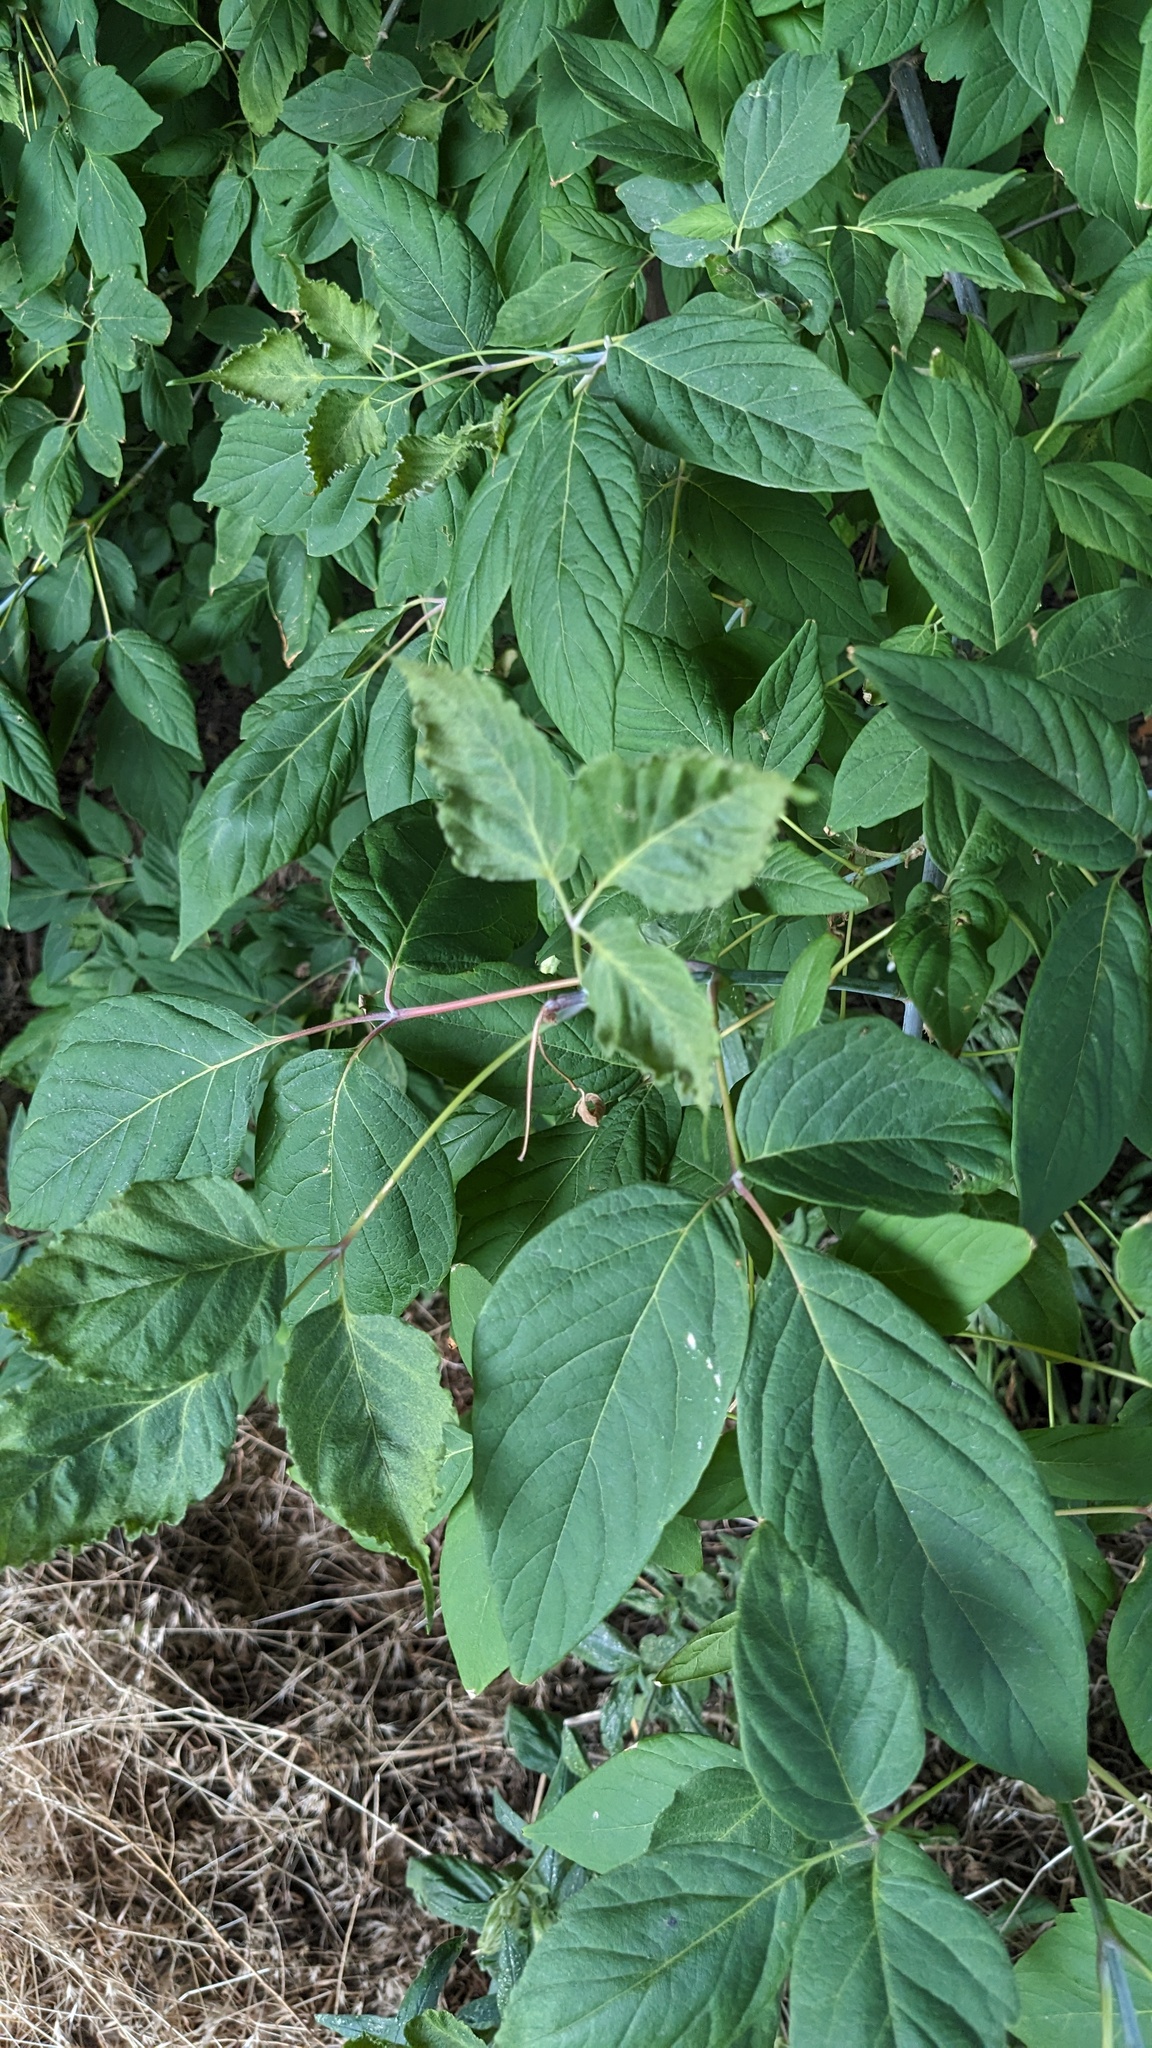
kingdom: Plantae
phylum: Tracheophyta
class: Magnoliopsida
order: Sapindales
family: Sapindaceae
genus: Acer
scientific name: Acer negundo
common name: Ashleaf maple
